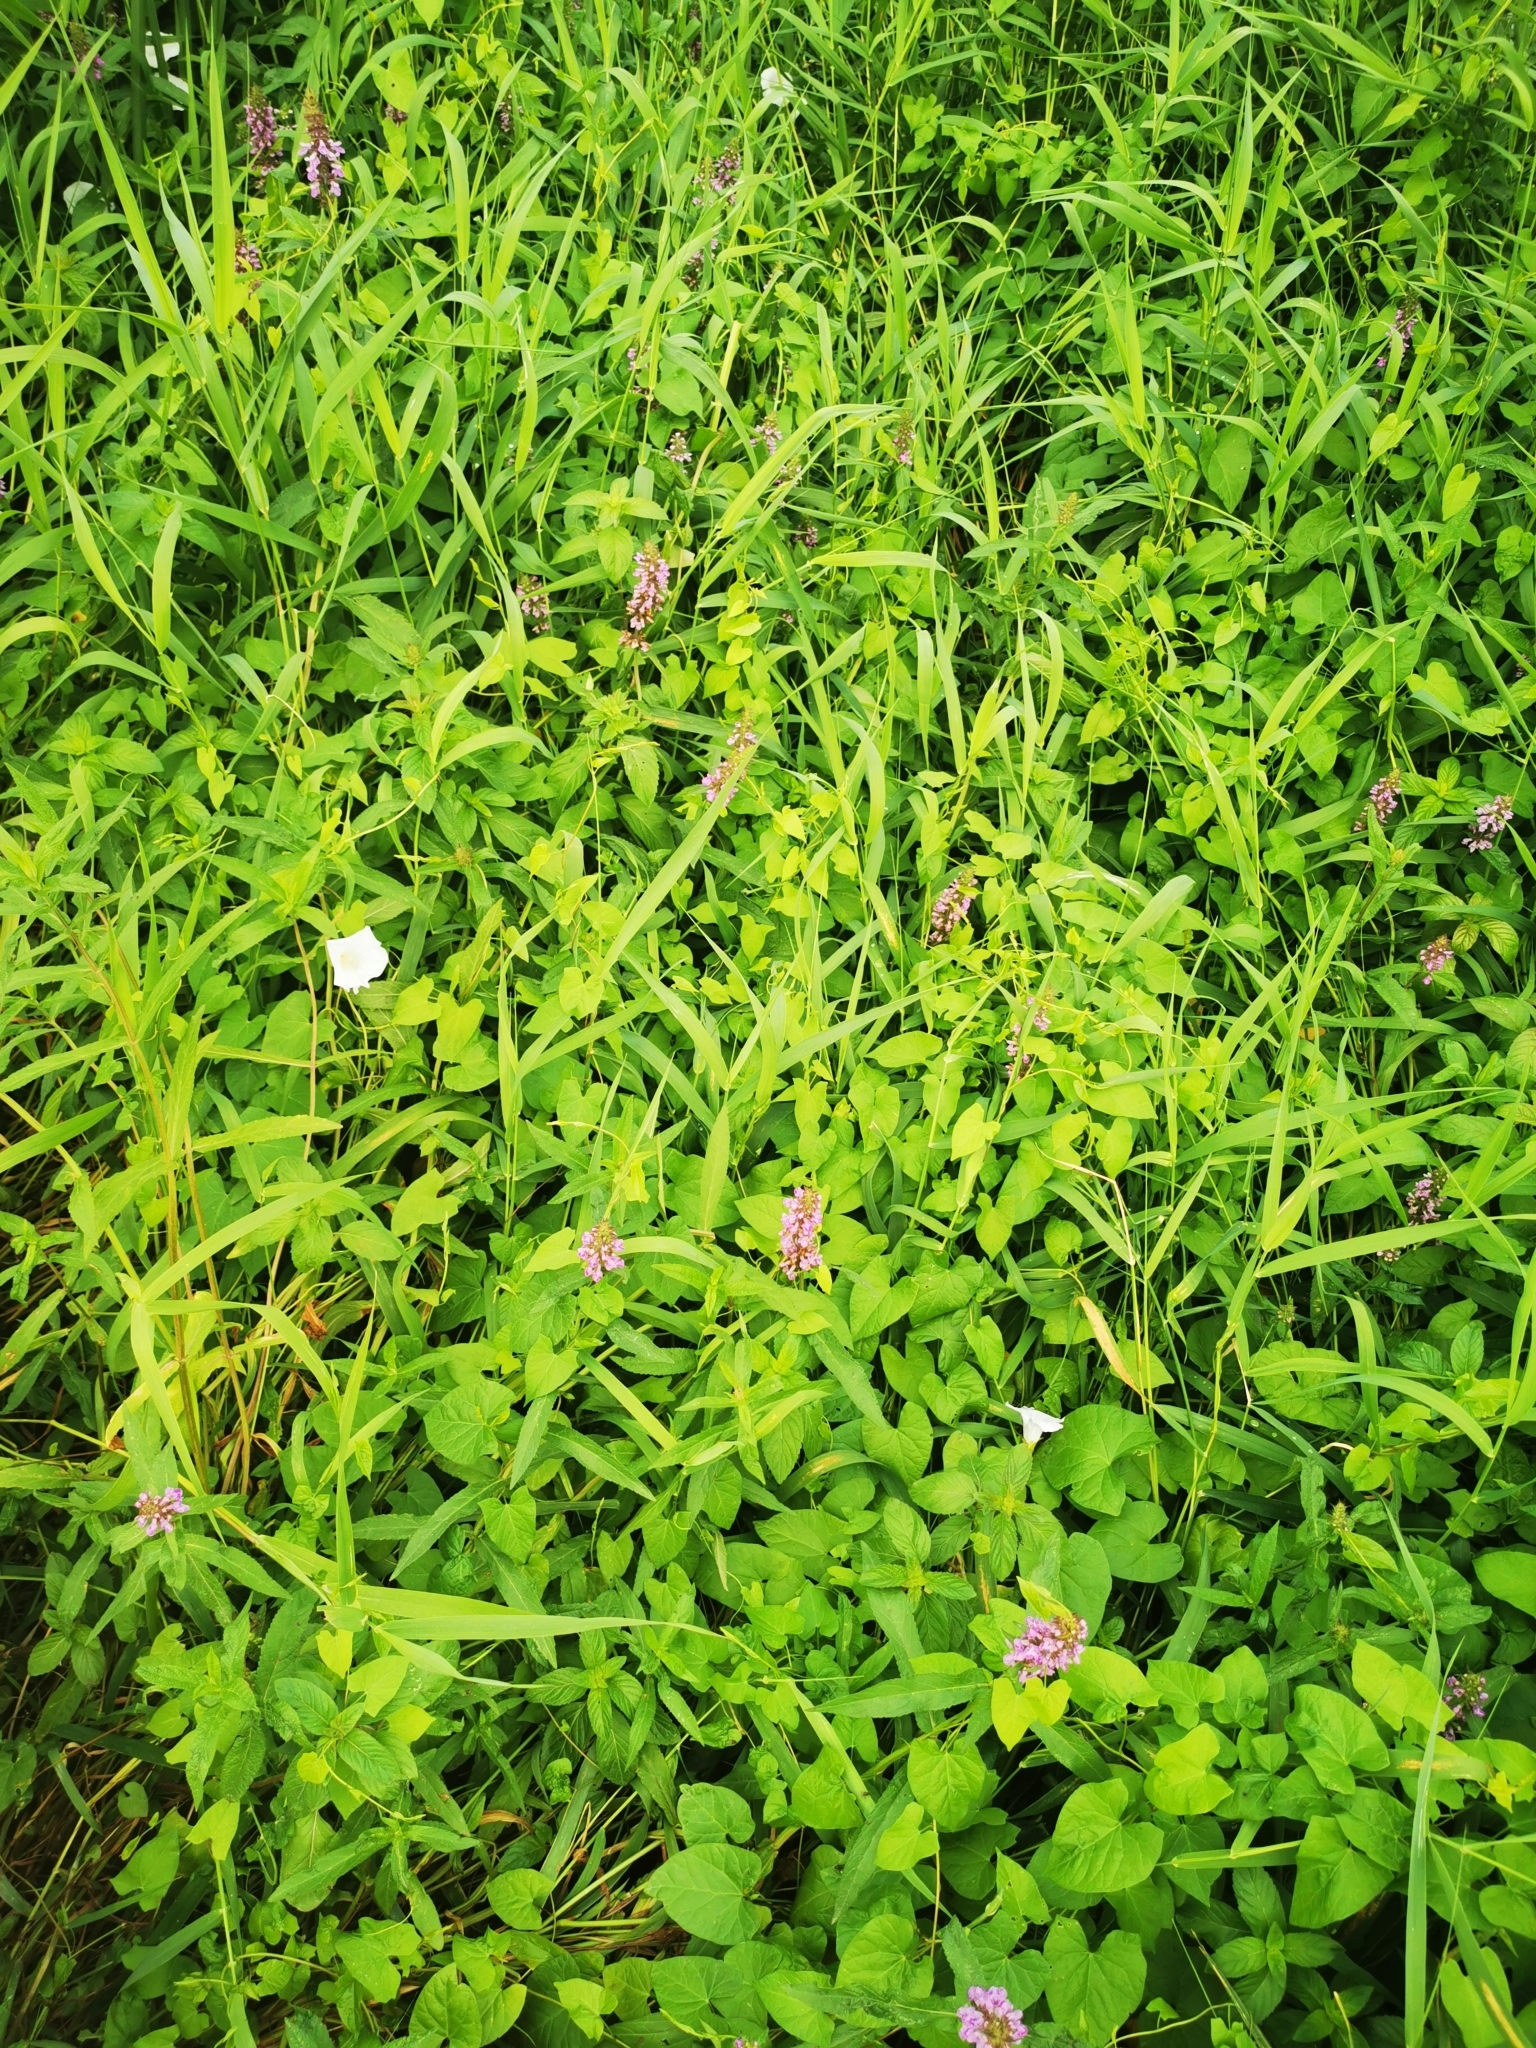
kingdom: Plantae
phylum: Tracheophyta
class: Magnoliopsida
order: Lamiales
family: Lamiaceae
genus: Stachys
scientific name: Stachys palustris
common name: Marsh woundwort
